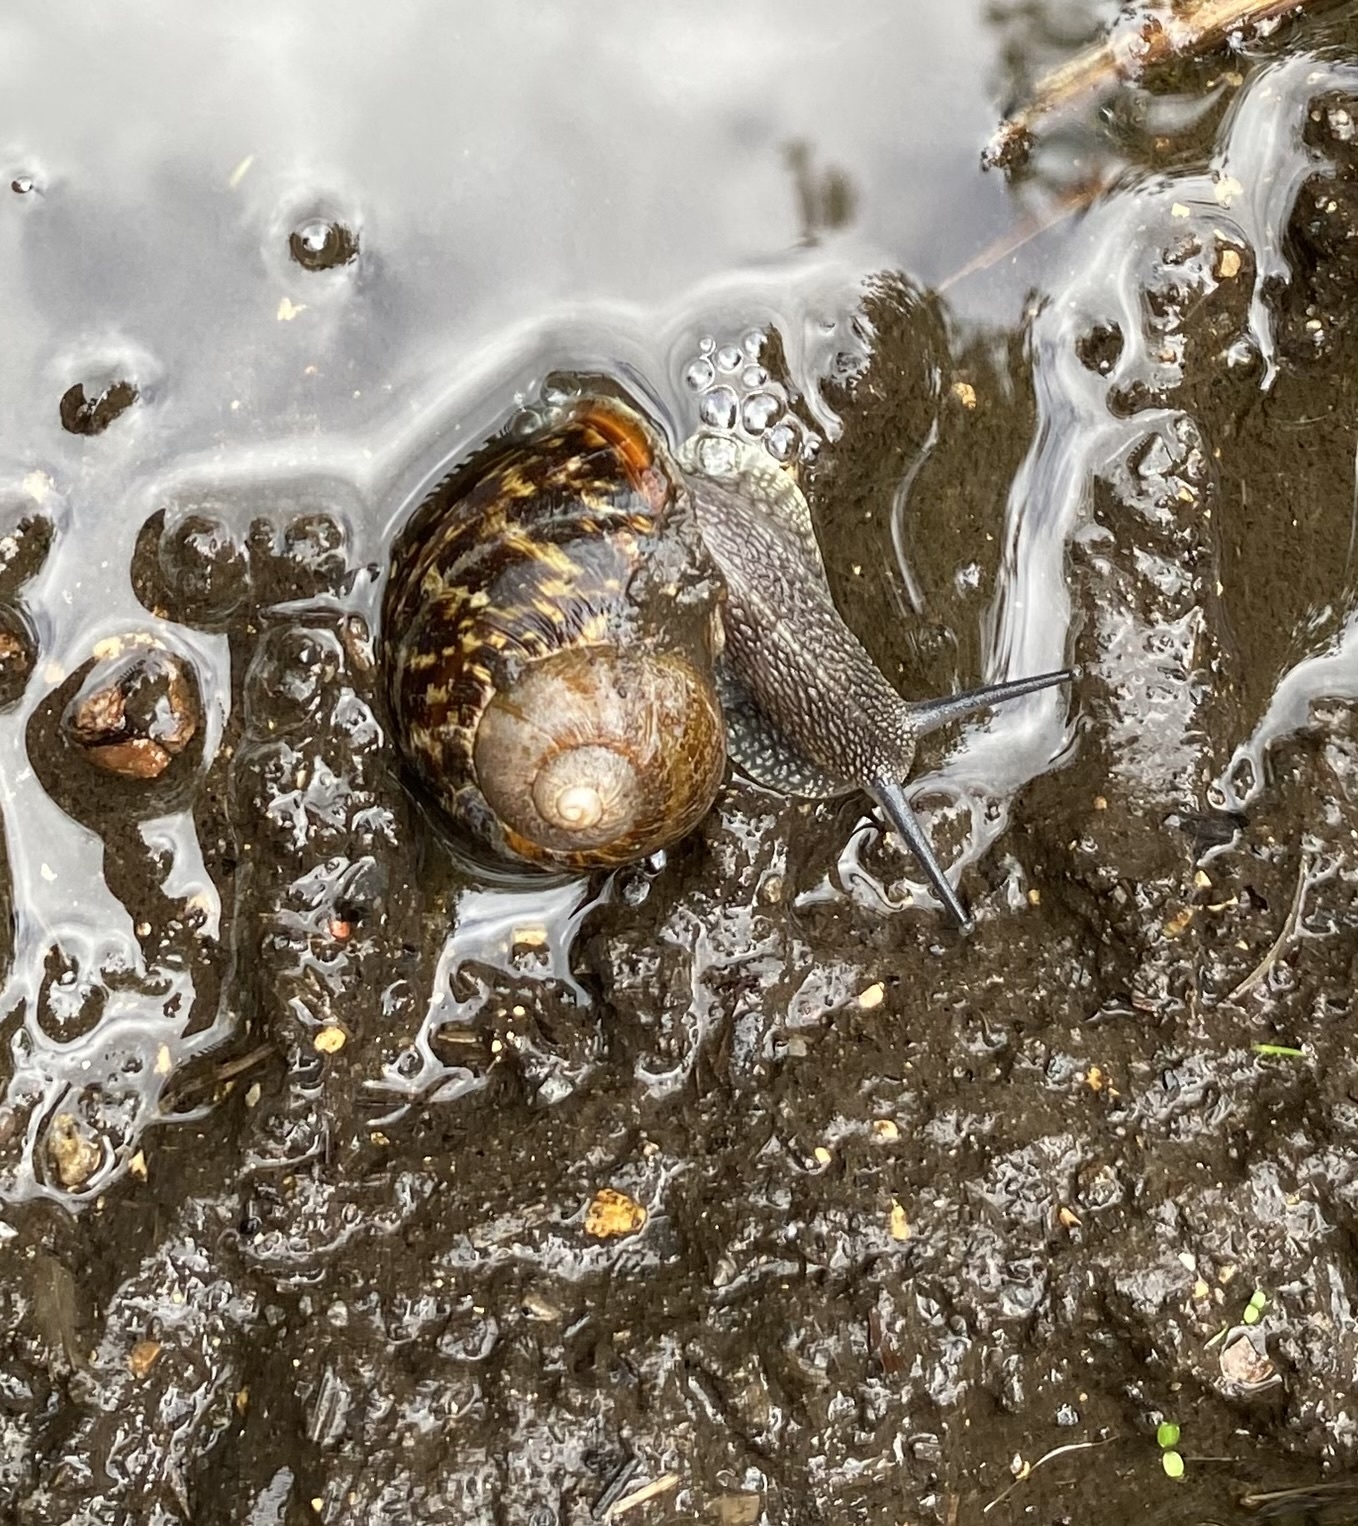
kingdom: Animalia
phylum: Mollusca
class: Gastropoda
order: Stylommatophora
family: Helicidae
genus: Cornu
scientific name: Cornu aspersum
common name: Brown garden snail
